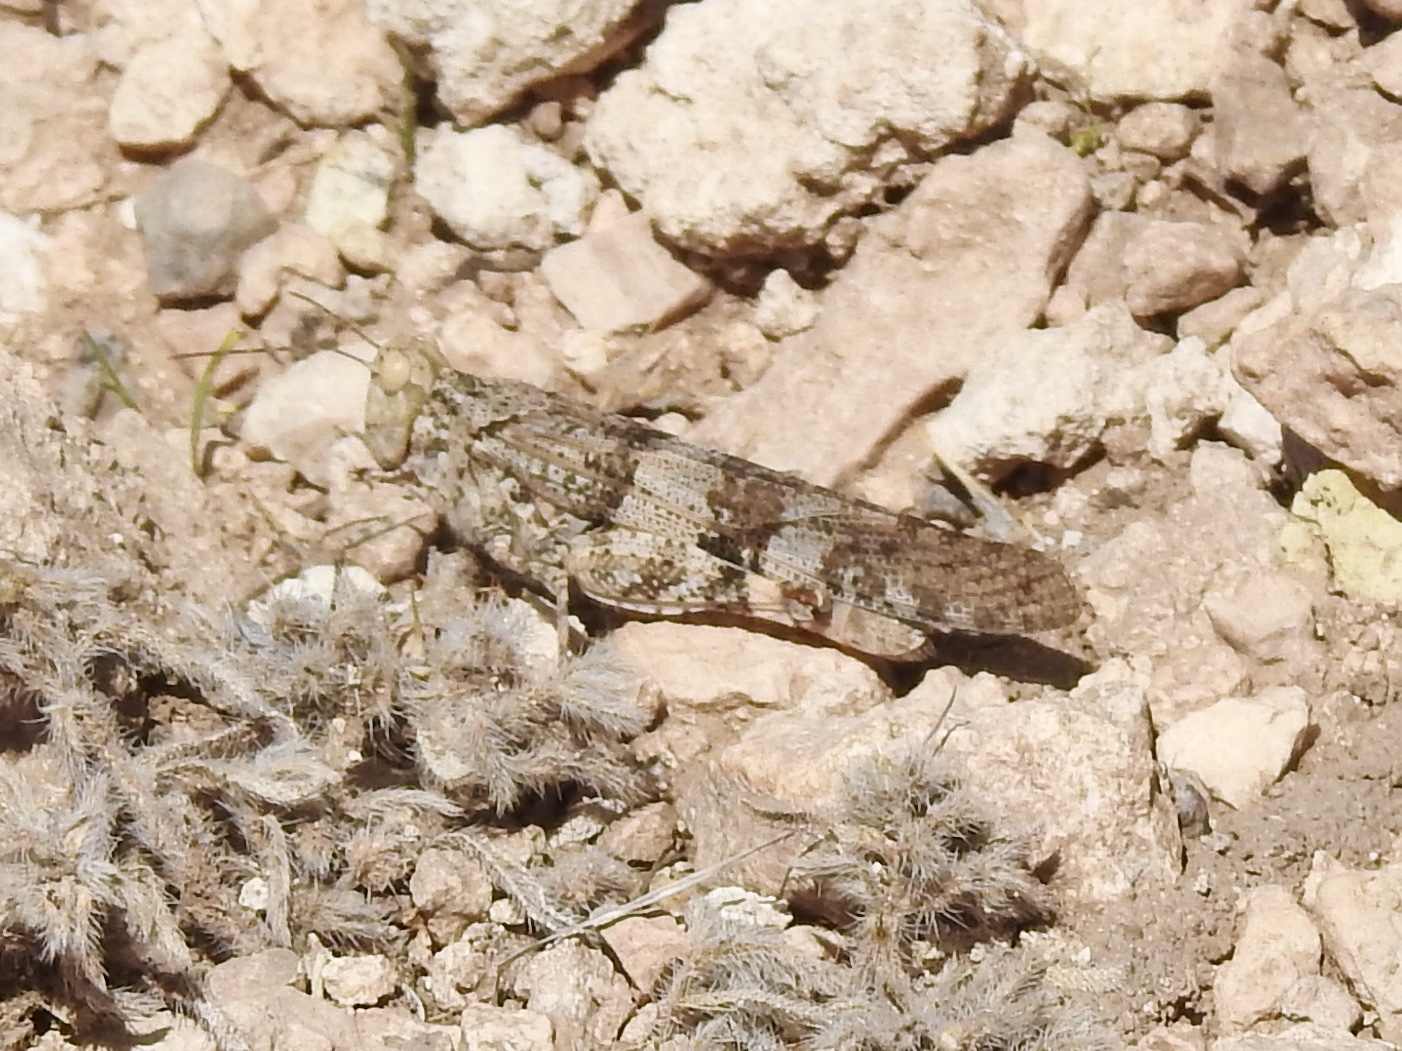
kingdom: Animalia
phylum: Arthropoda
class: Insecta
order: Orthoptera
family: Acrididae
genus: Trimerotropis
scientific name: Trimerotropis pallidipennis
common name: Pallid-winged grasshopper
